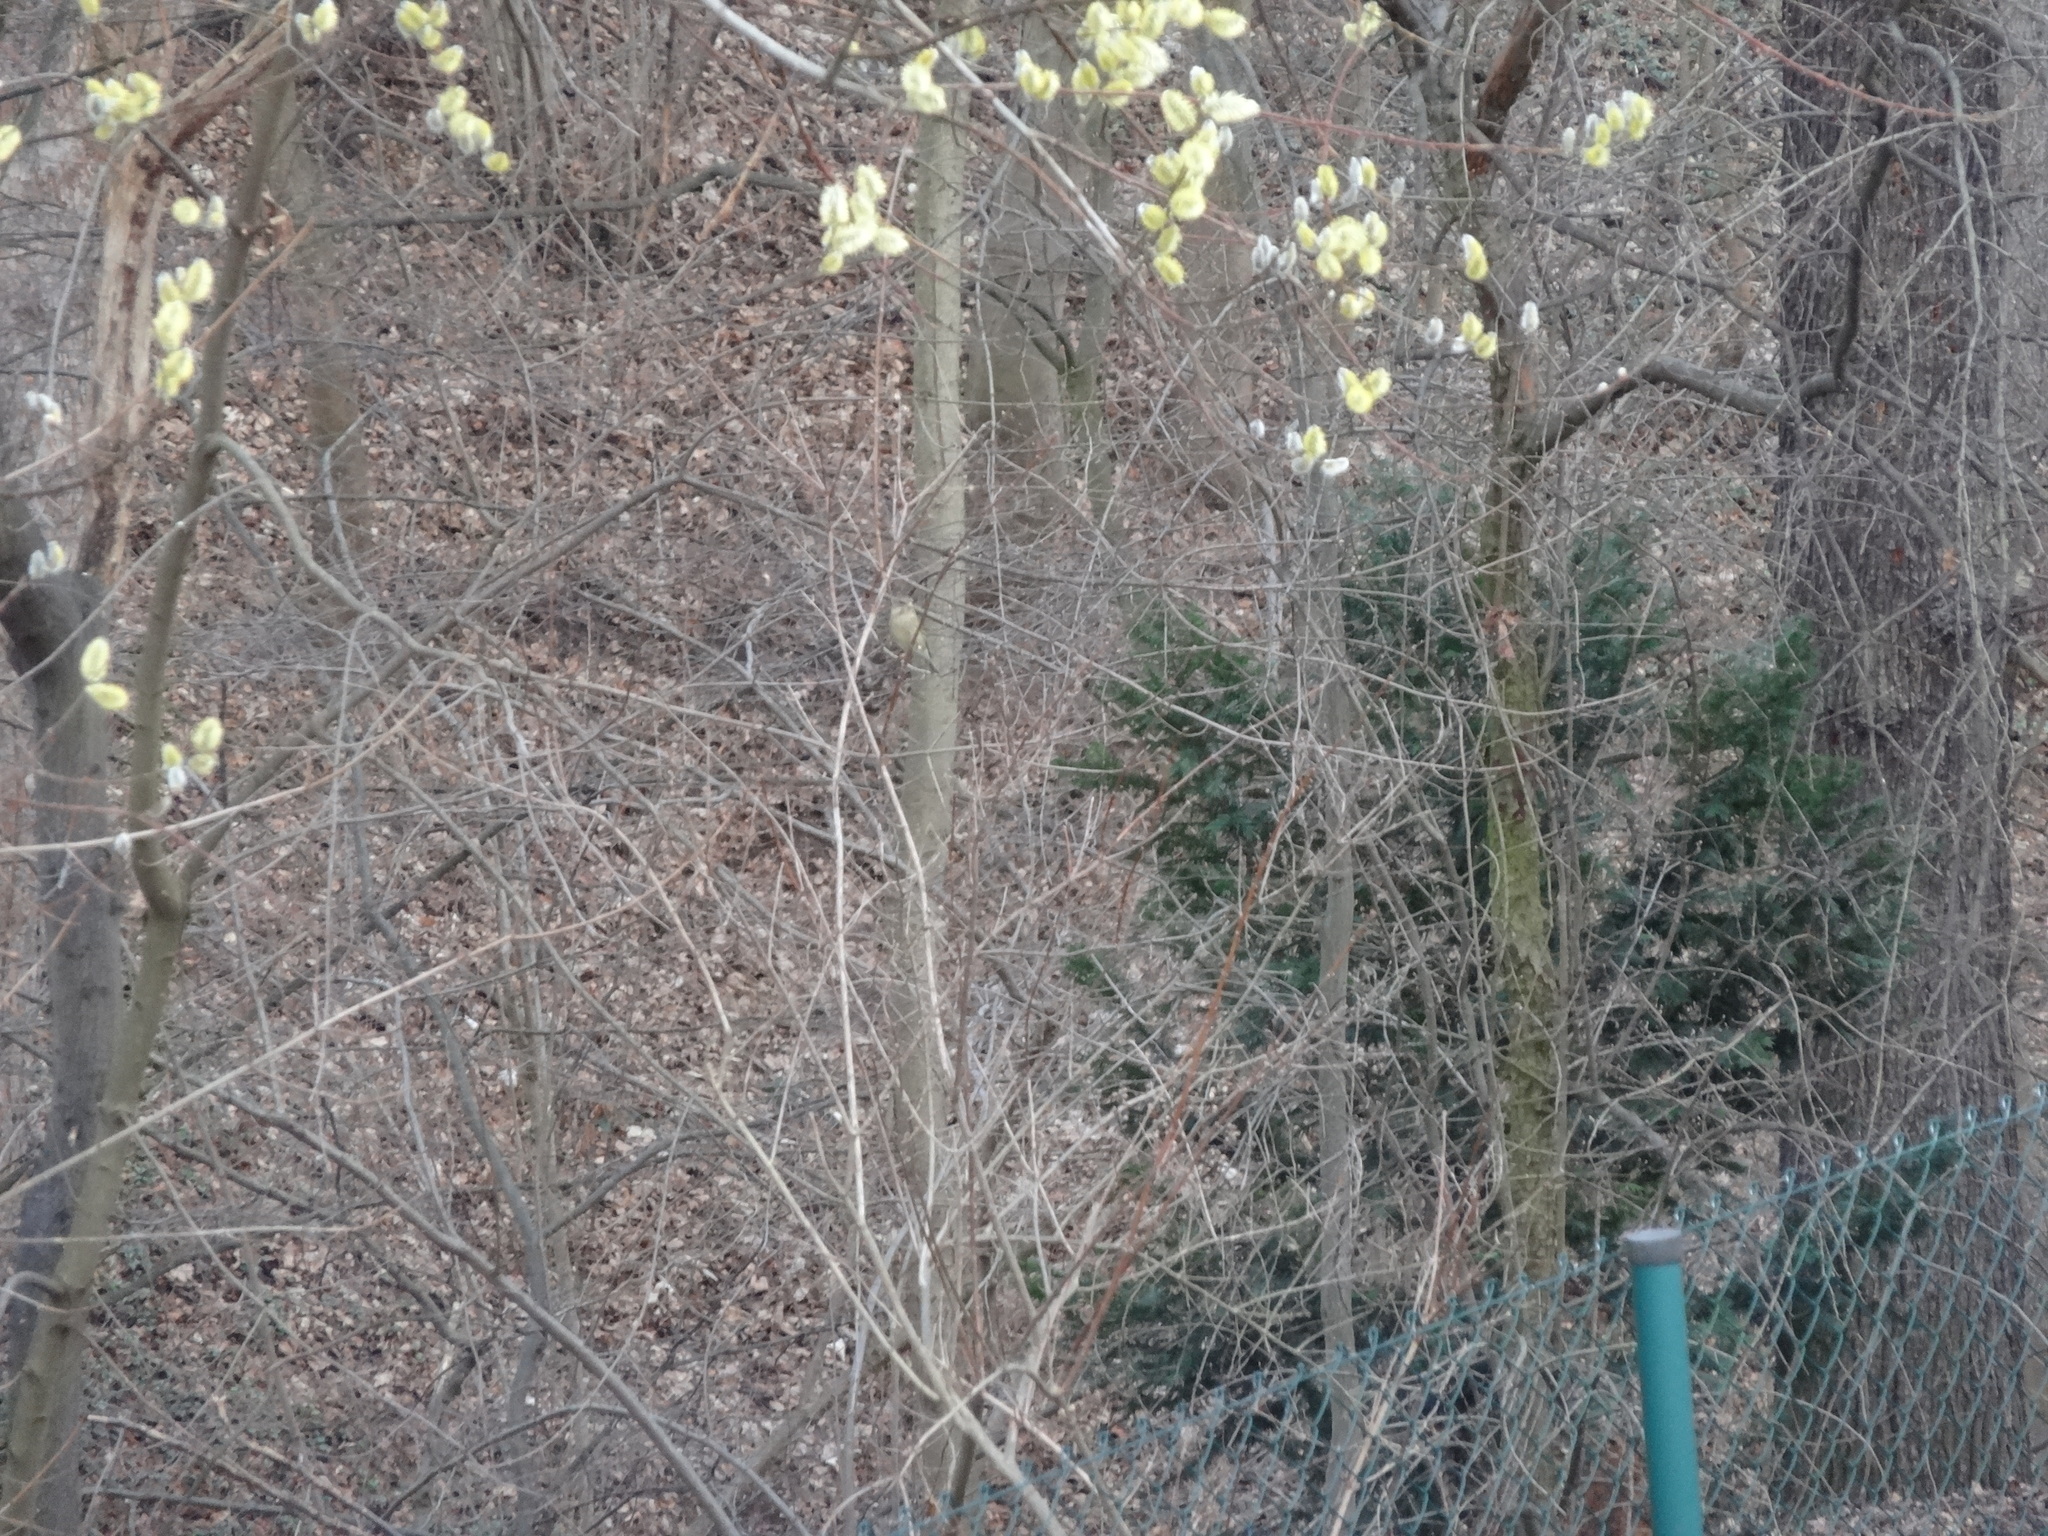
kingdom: Plantae
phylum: Tracheophyta
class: Liliopsida
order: Poales
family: Poaceae
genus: Chloris
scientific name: Chloris chloris
